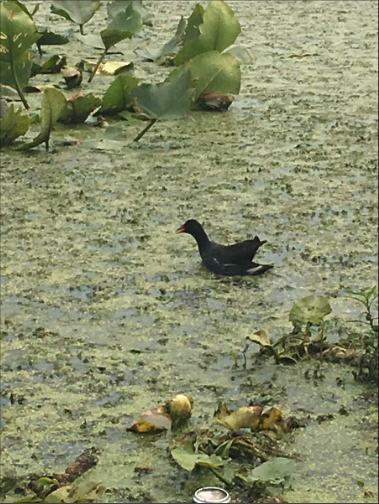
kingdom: Animalia
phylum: Chordata
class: Aves
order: Gruiformes
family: Rallidae
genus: Gallinula
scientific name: Gallinula chloropus
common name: Common moorhen
